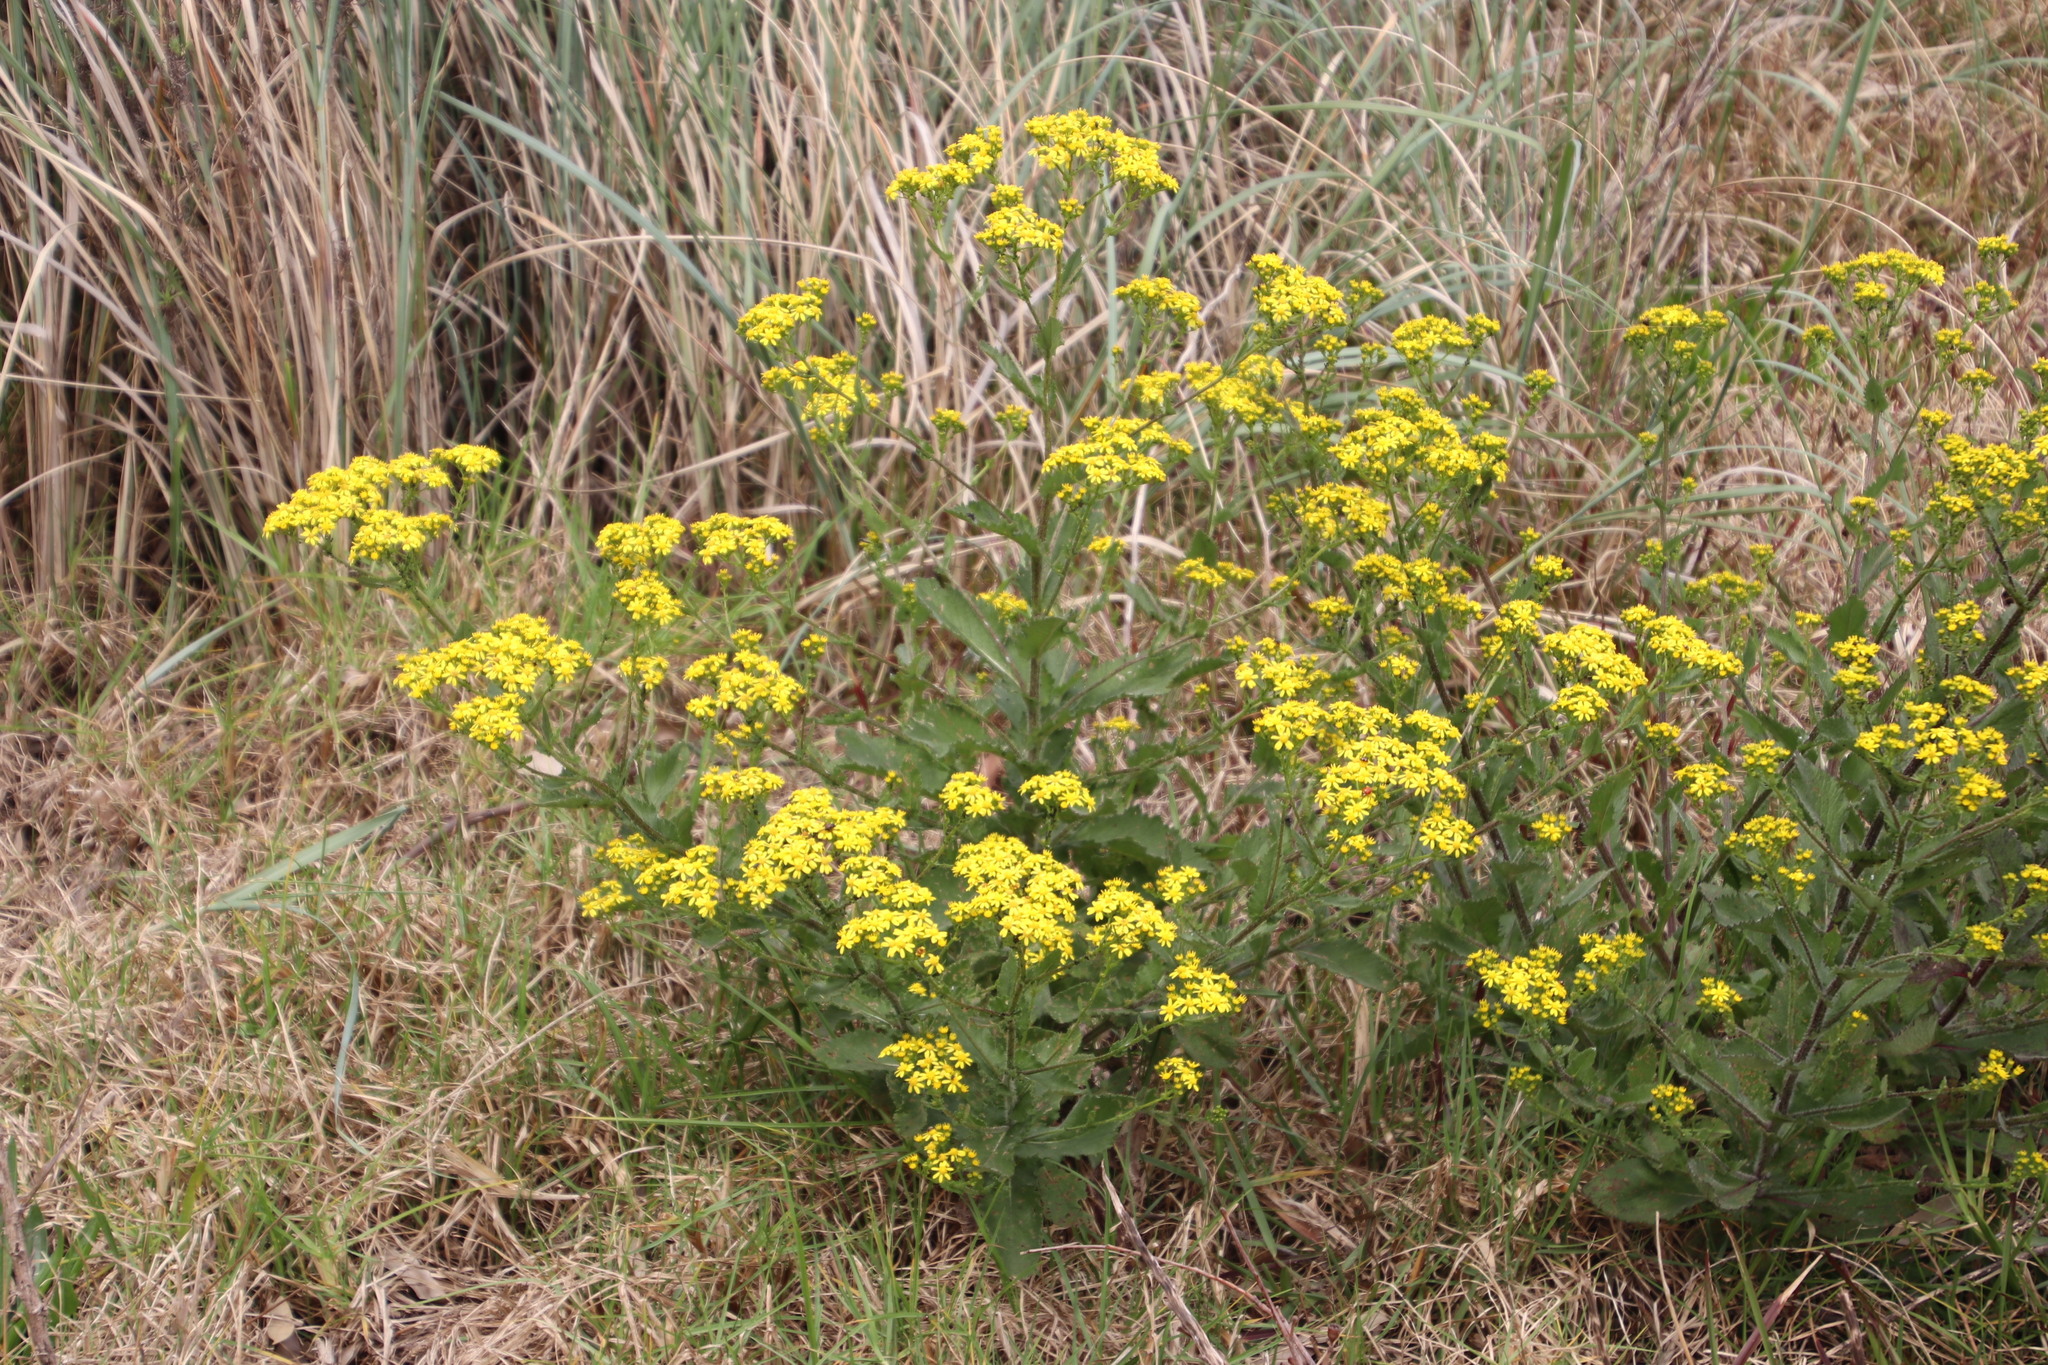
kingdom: Plantae
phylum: Tracheophyta
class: Magnoliopsida
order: Asterales
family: Asteraceae
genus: Senecio
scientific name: Senecio subcanescens
